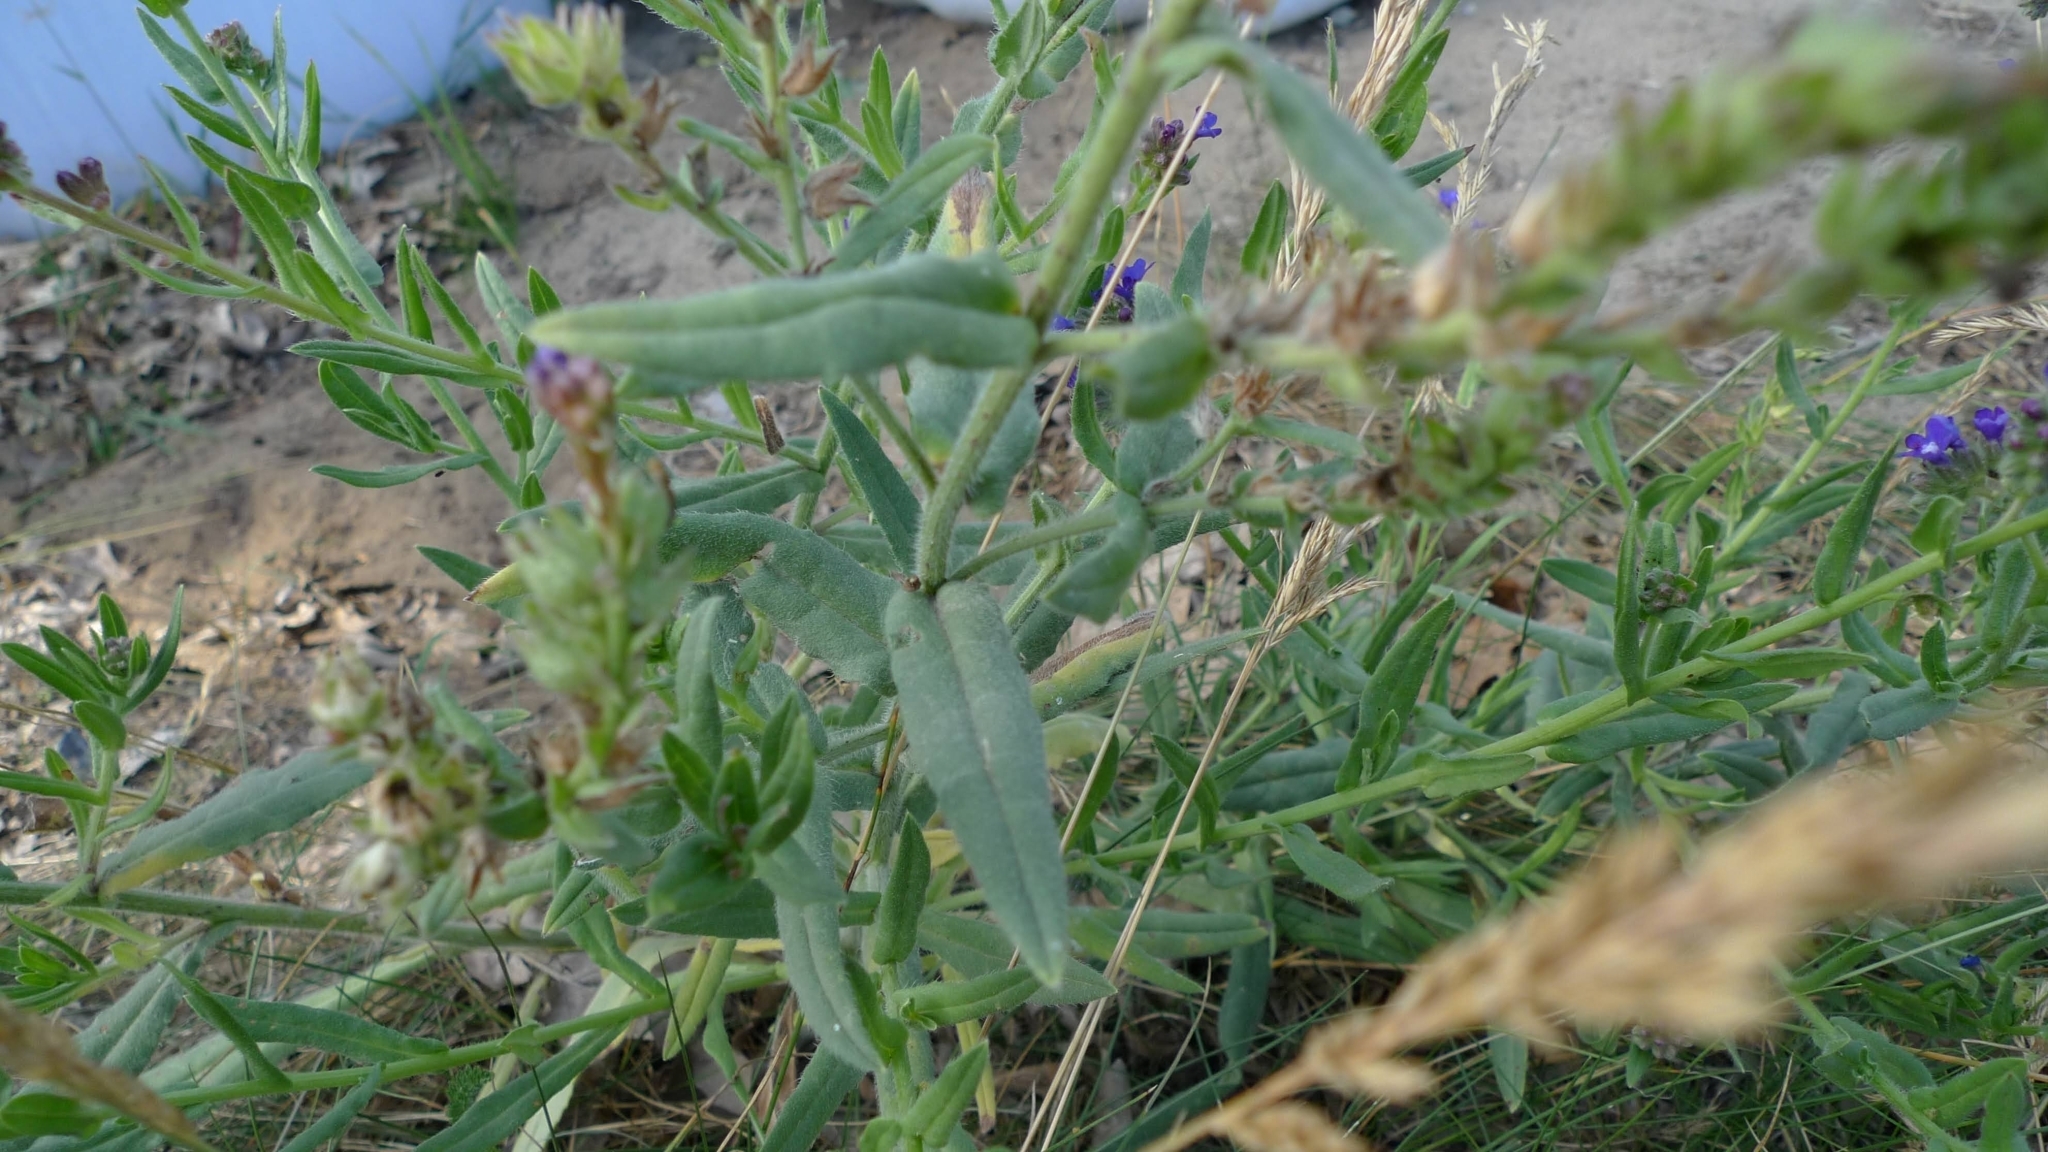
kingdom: Plantae
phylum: Tracheophyta
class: Magnoliopsida
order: Boraginales
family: Boraginaceae
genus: Anchusa
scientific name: Anchusa officinalis
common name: Alkanet
